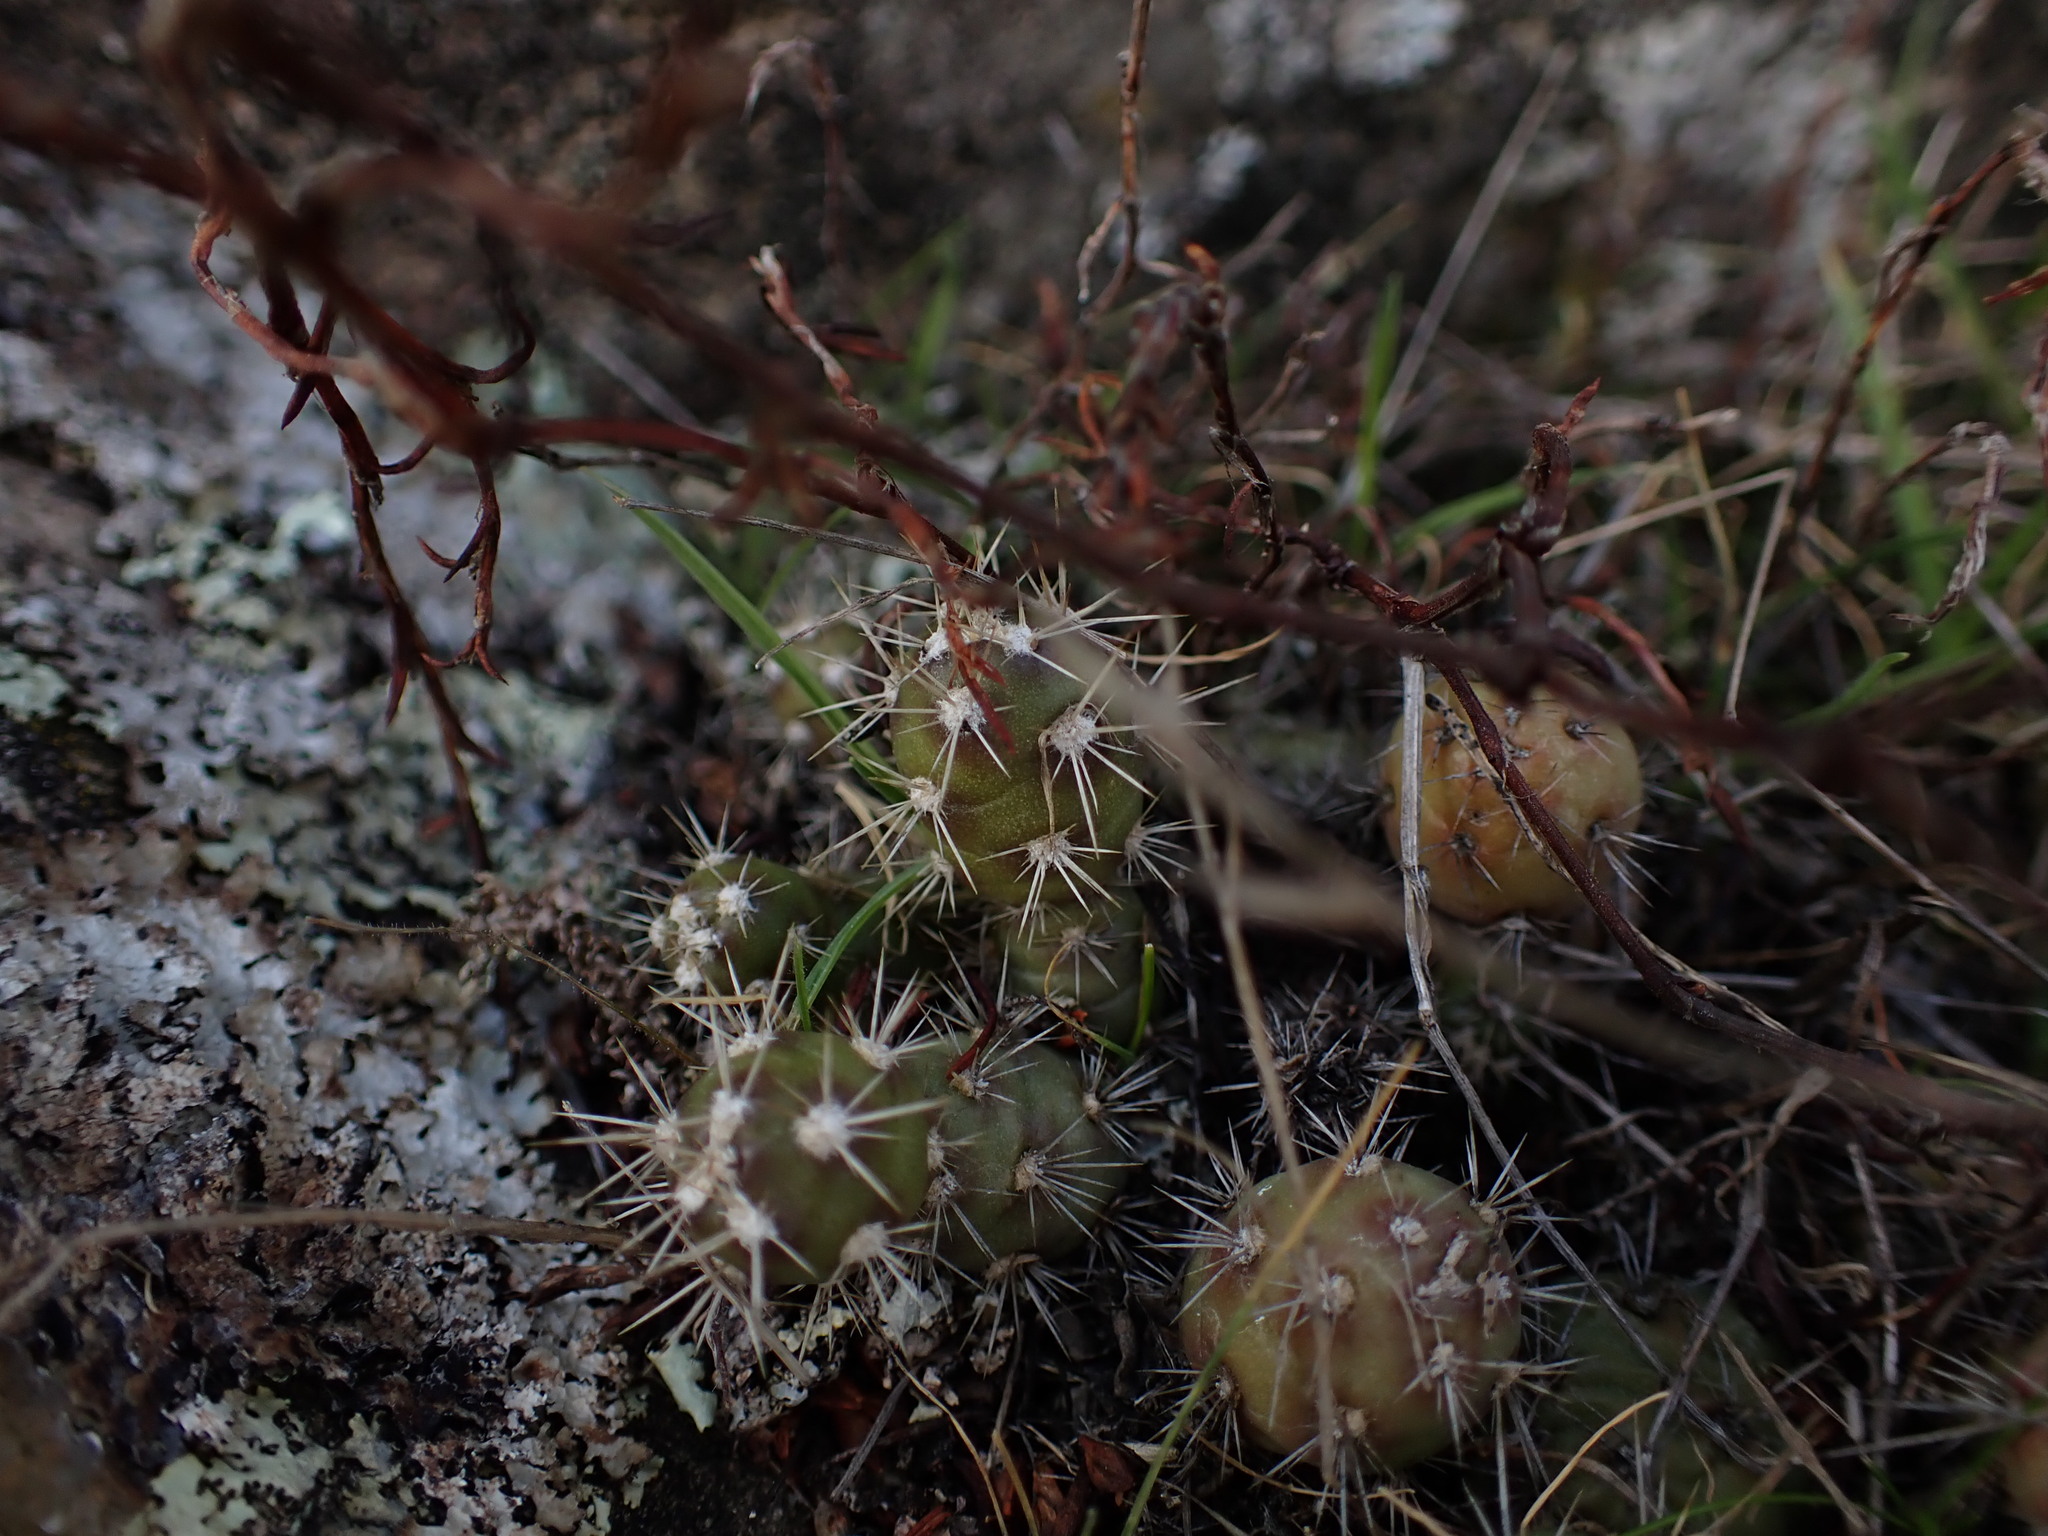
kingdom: Plantae
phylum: Tracheophyta
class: Magnoliopsida
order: Caryophyllales
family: Cactaceae
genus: Opuntia
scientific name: Opuntia fragilis
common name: Brittle cactus
